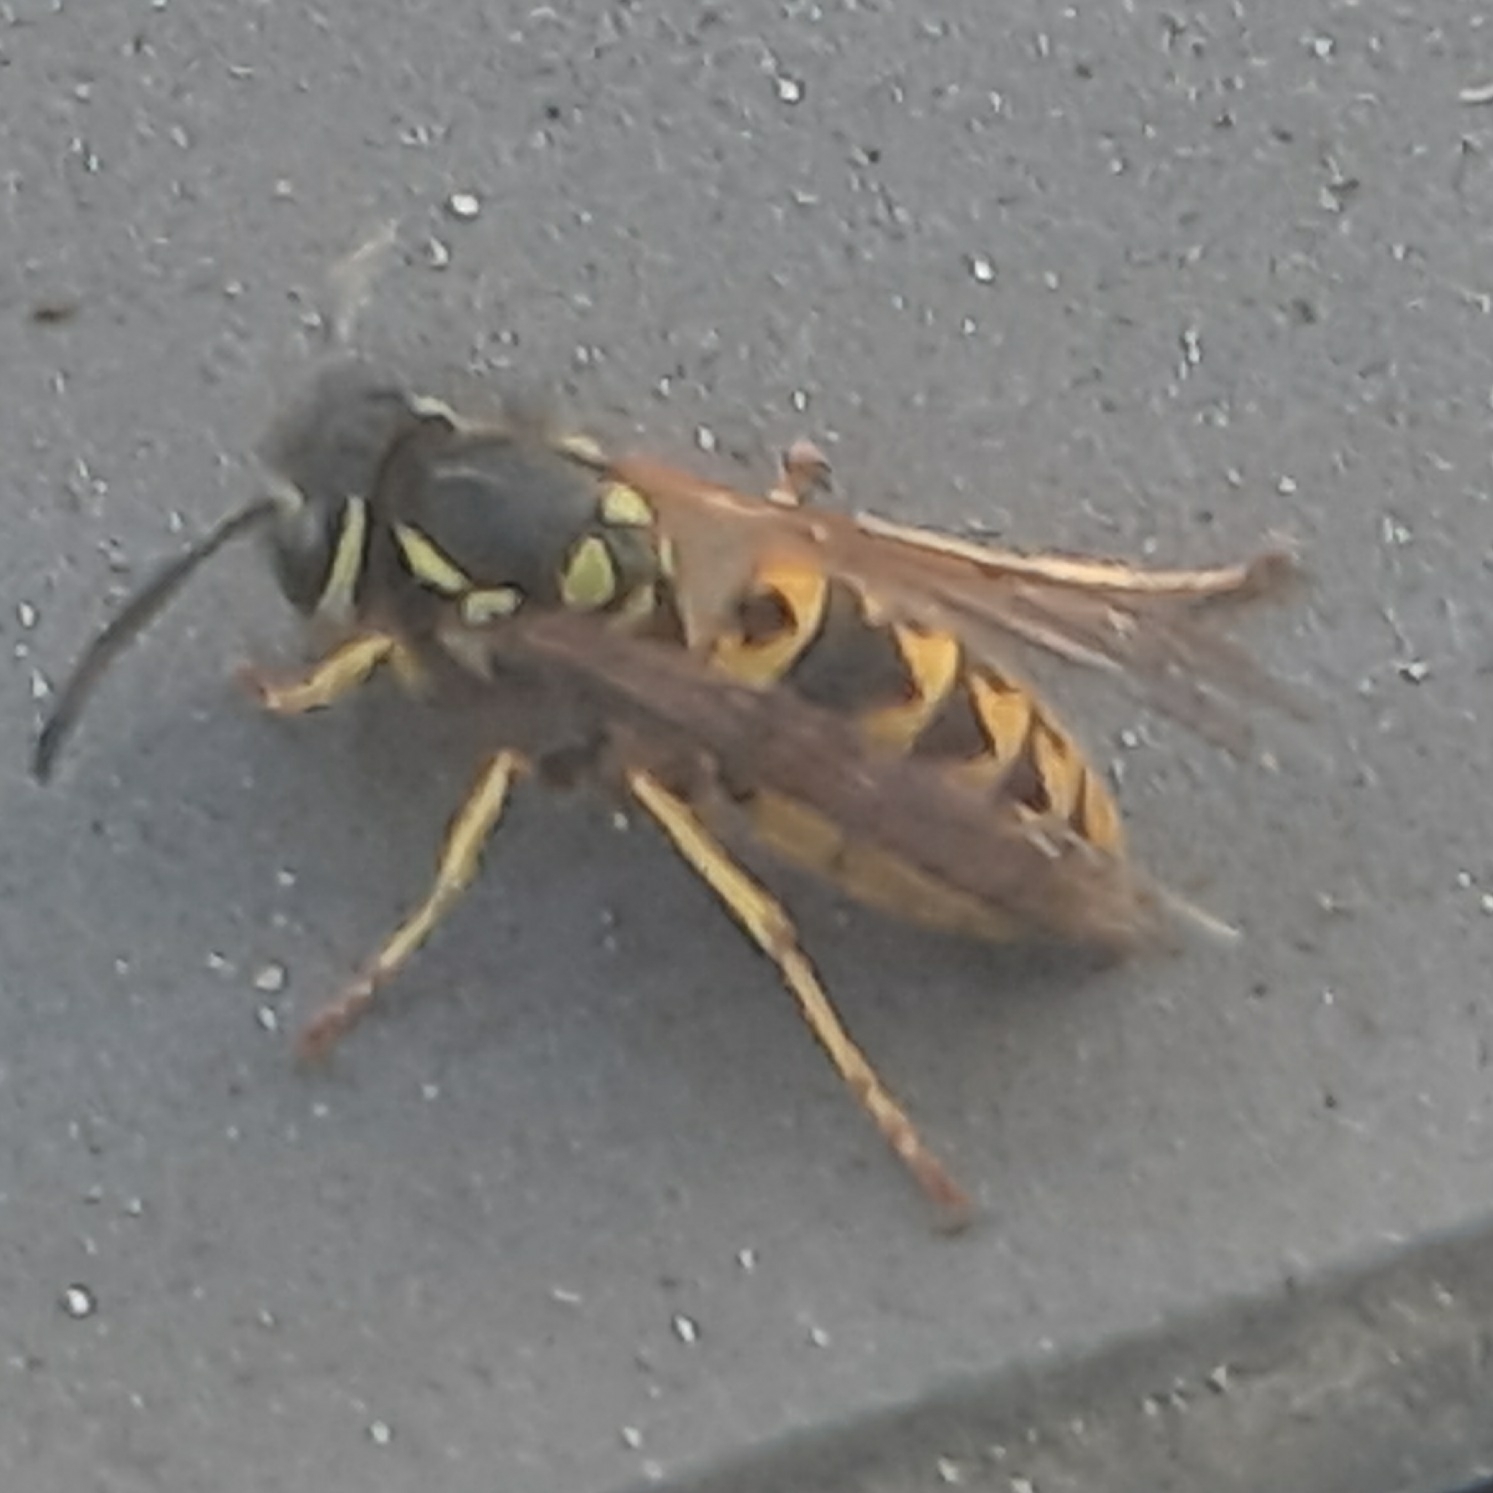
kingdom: Animalia
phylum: Arthropoda
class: Insecta
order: Hymenoptera
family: Vespidae
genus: Vespula
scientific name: Vespula germanica
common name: German wasp
